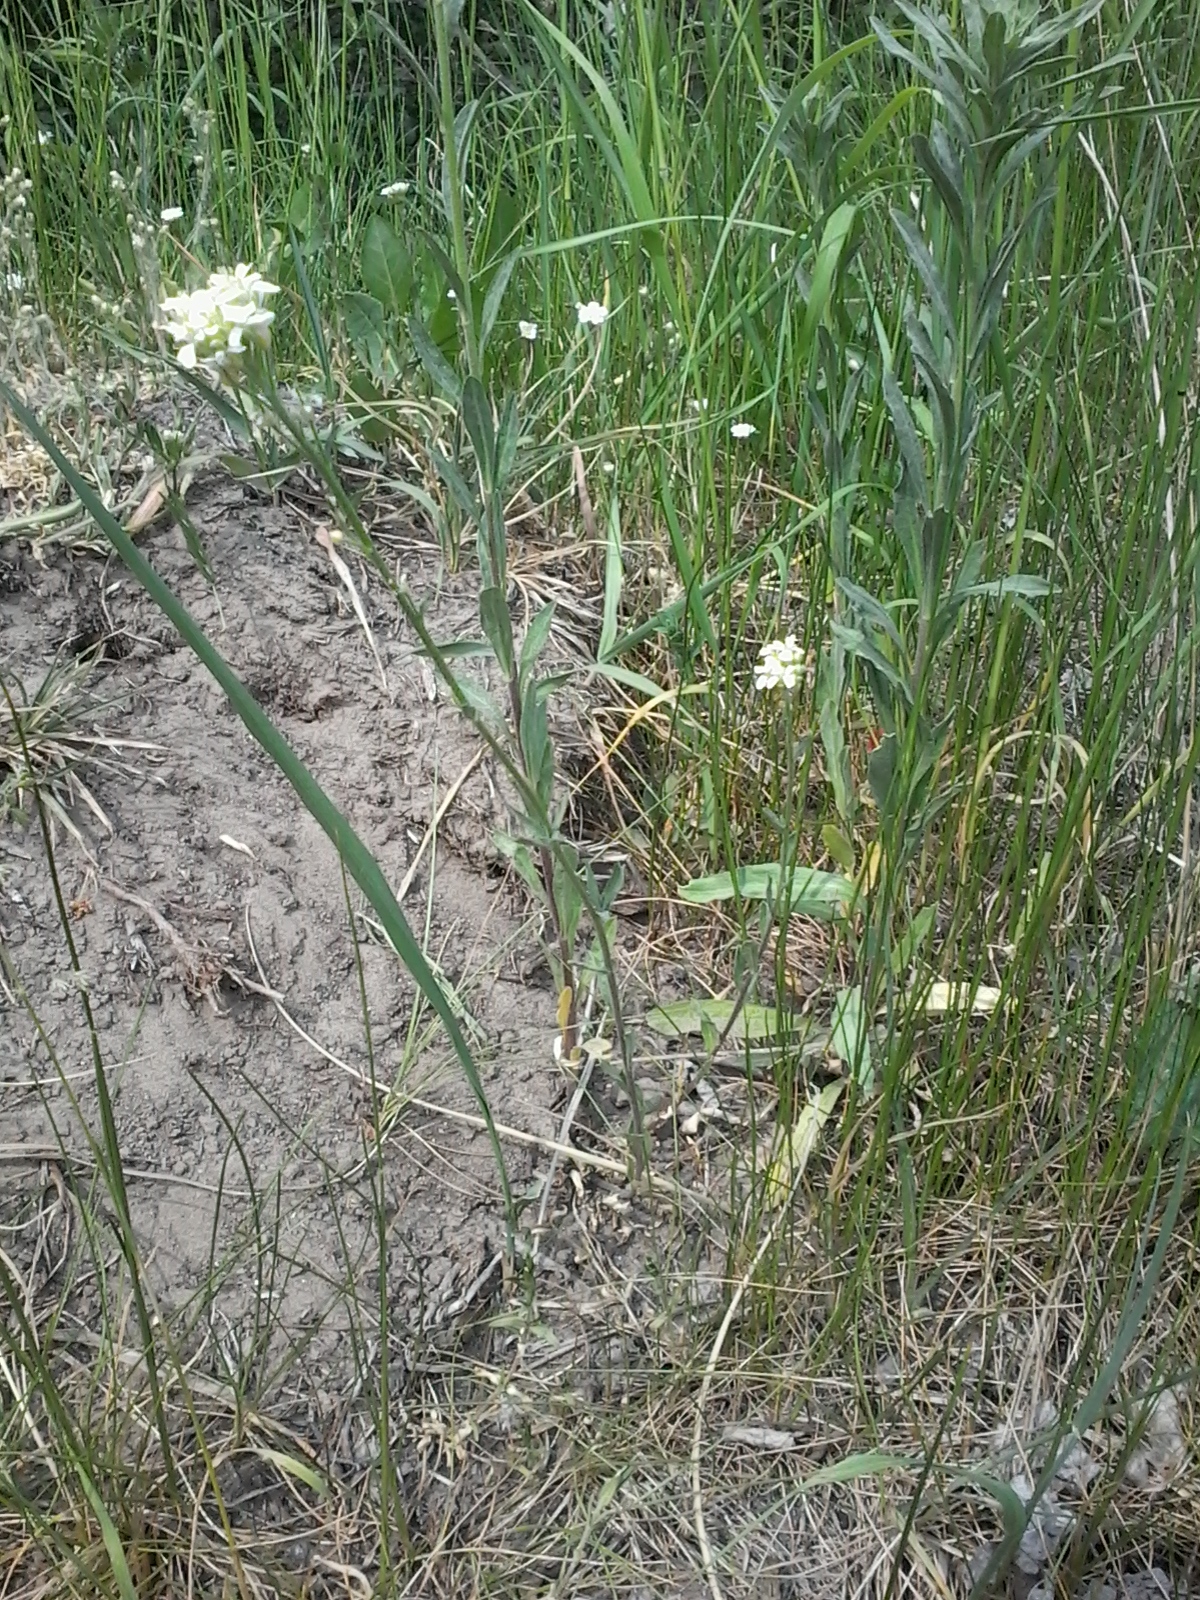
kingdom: Plantae
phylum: Tracheophyta
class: Magnoliopsida
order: Brassicales
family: Brassicaceae
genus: Berteroa
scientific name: Berteroa incana
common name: Hoary alison
